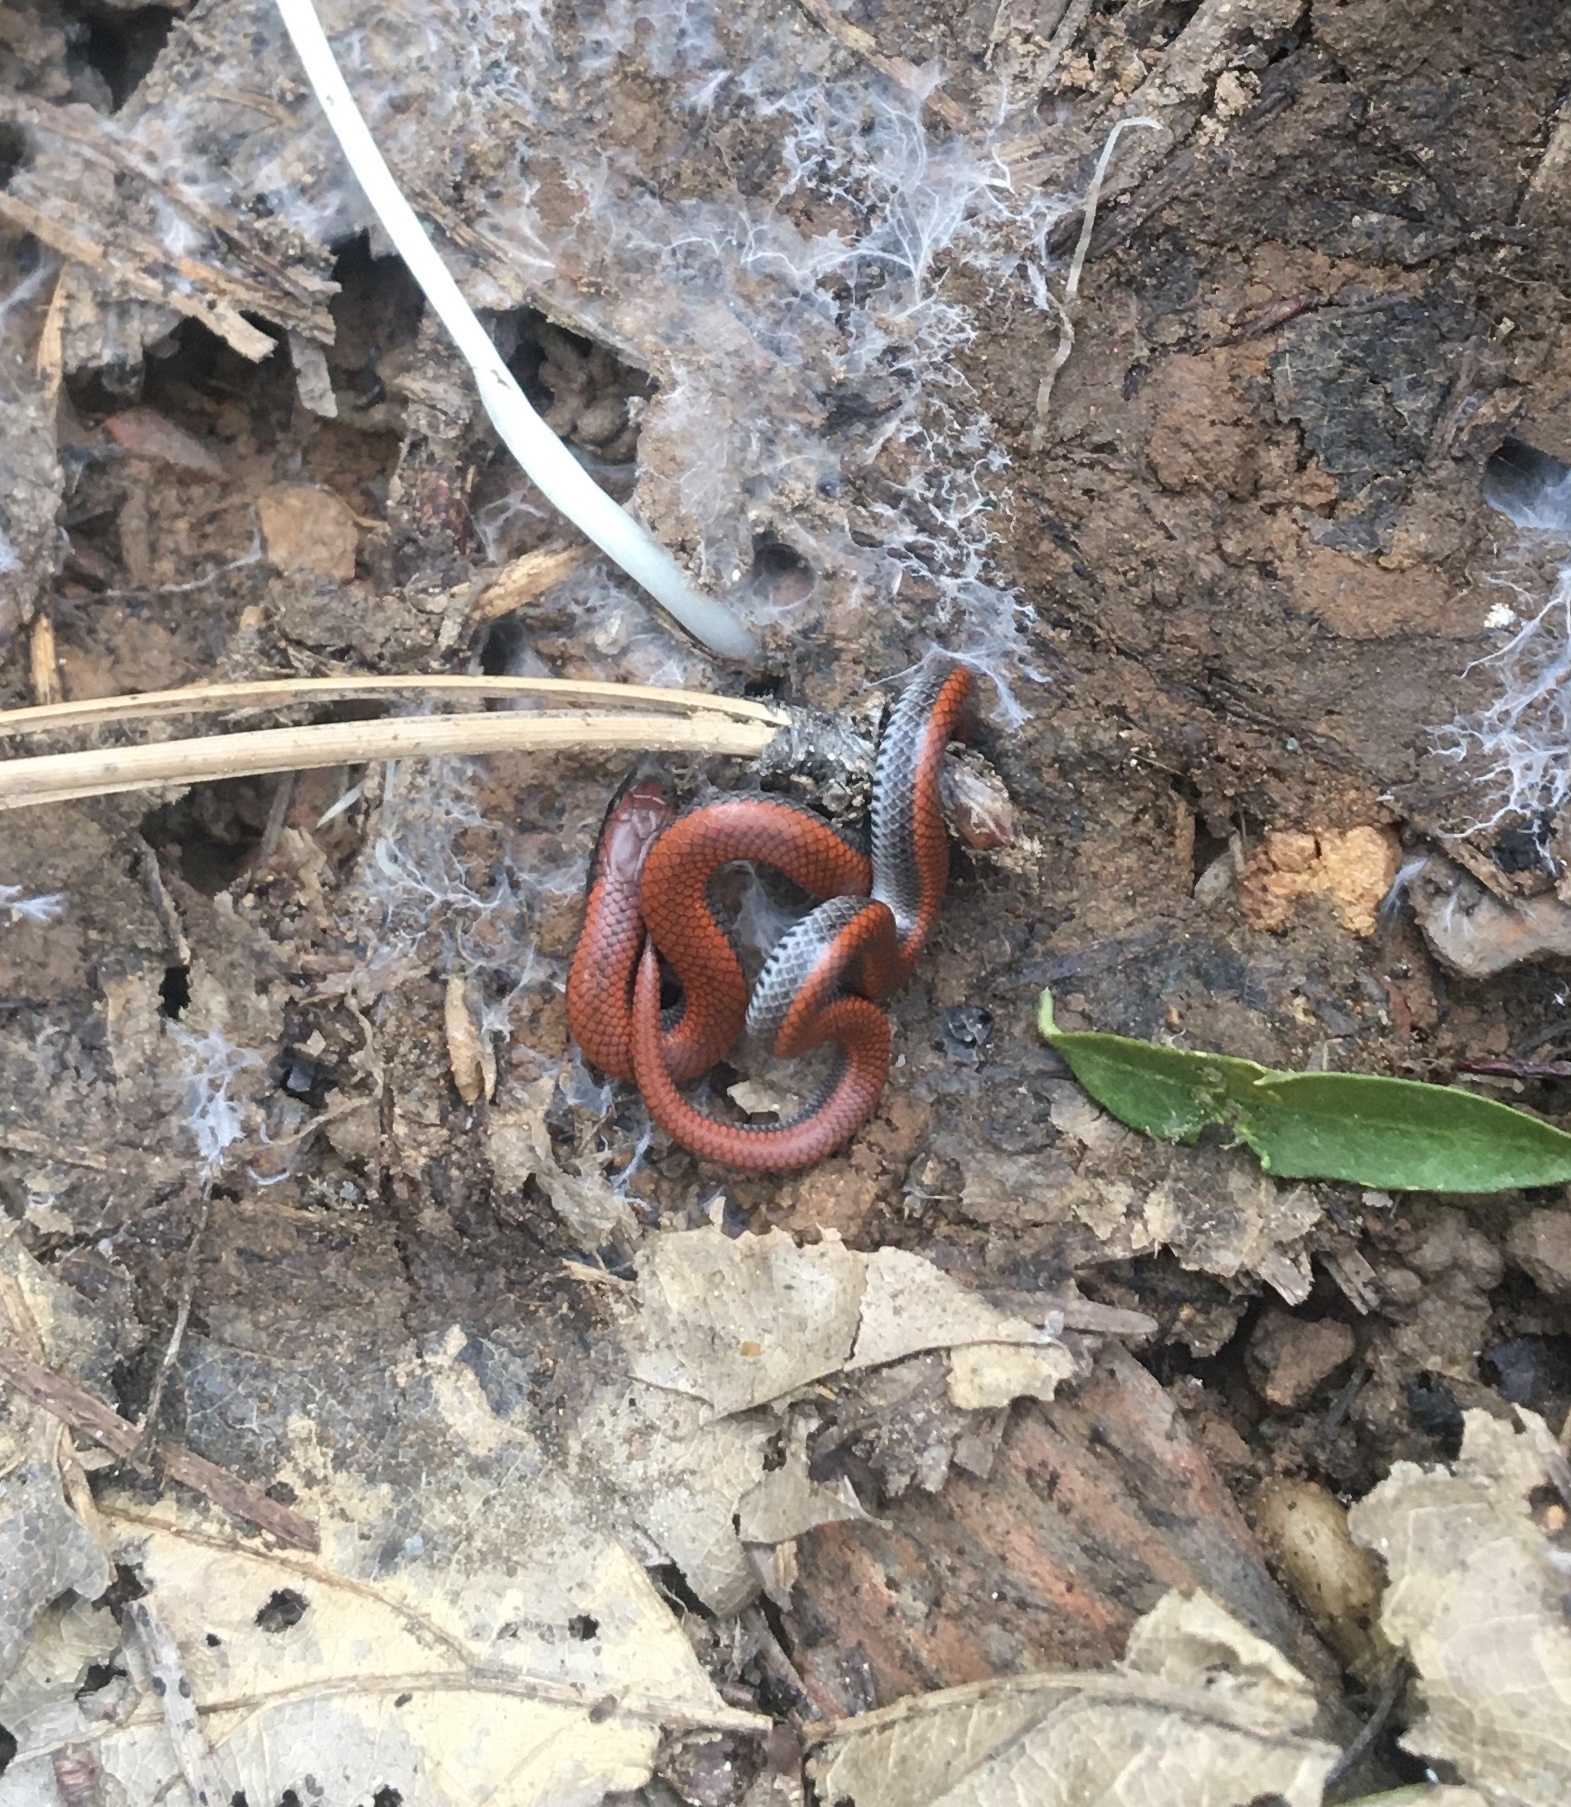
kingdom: Animalia
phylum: Chordata
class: Squamata
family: Colubridae
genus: Contia
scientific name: Contia tenuis
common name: Sharptail snake
